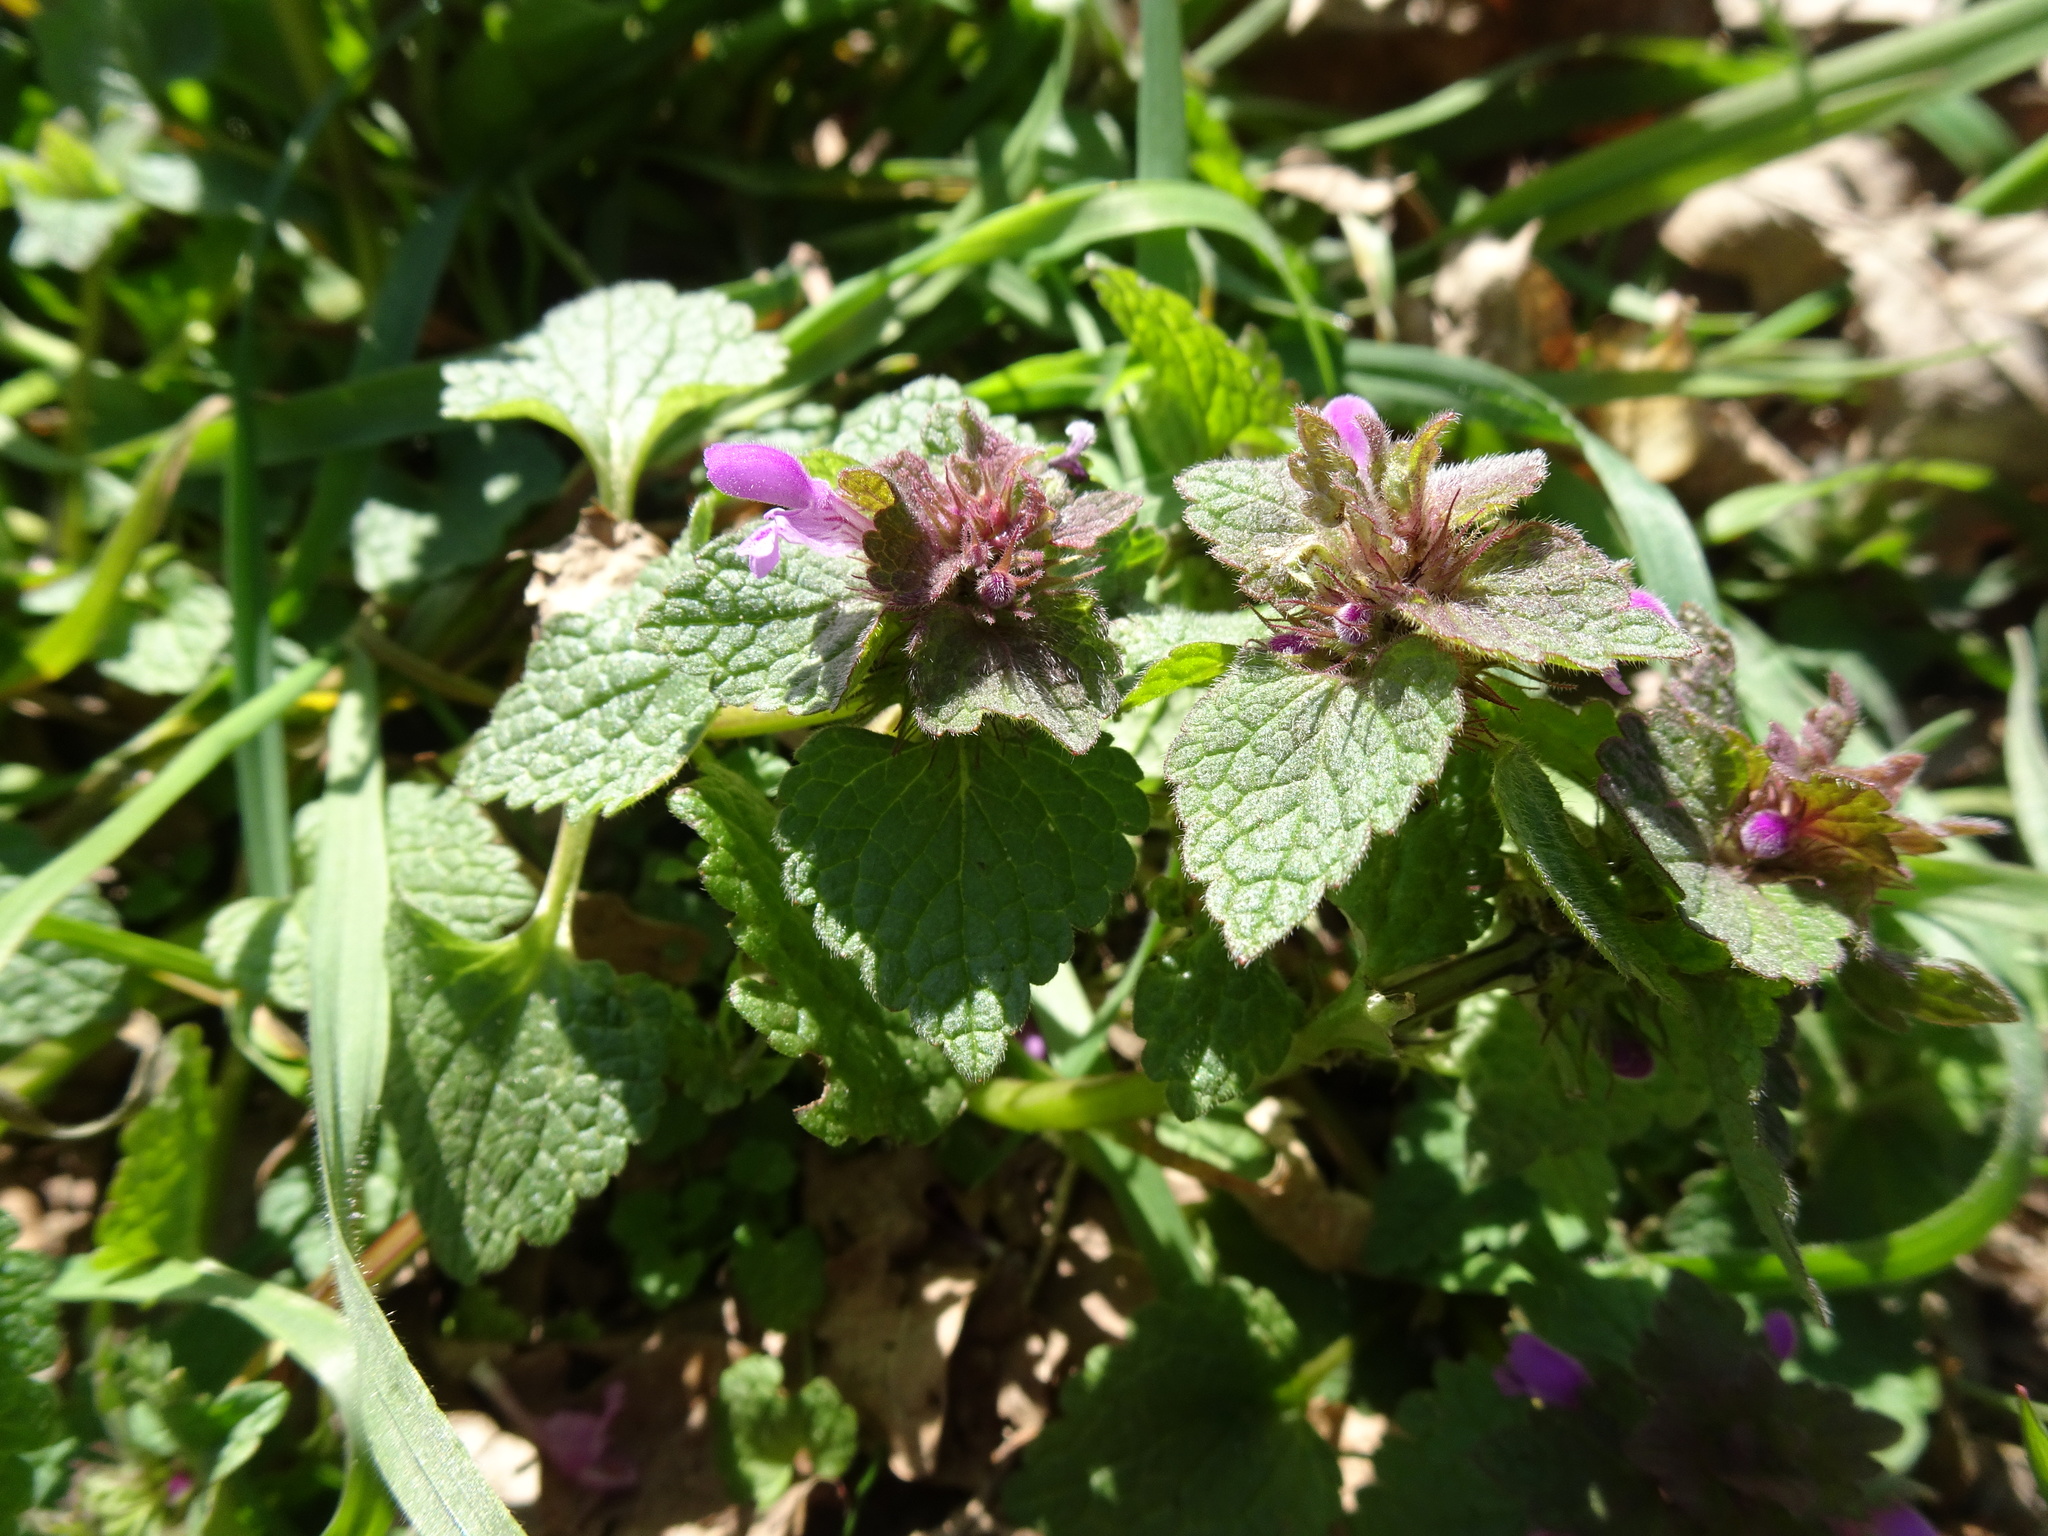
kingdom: Plantae
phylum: Tracheophyta
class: Magnoliopsida
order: Lamiales
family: Lamiaceae
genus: Lamium
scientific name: Lamium purpureum
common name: Red dead-nettle
